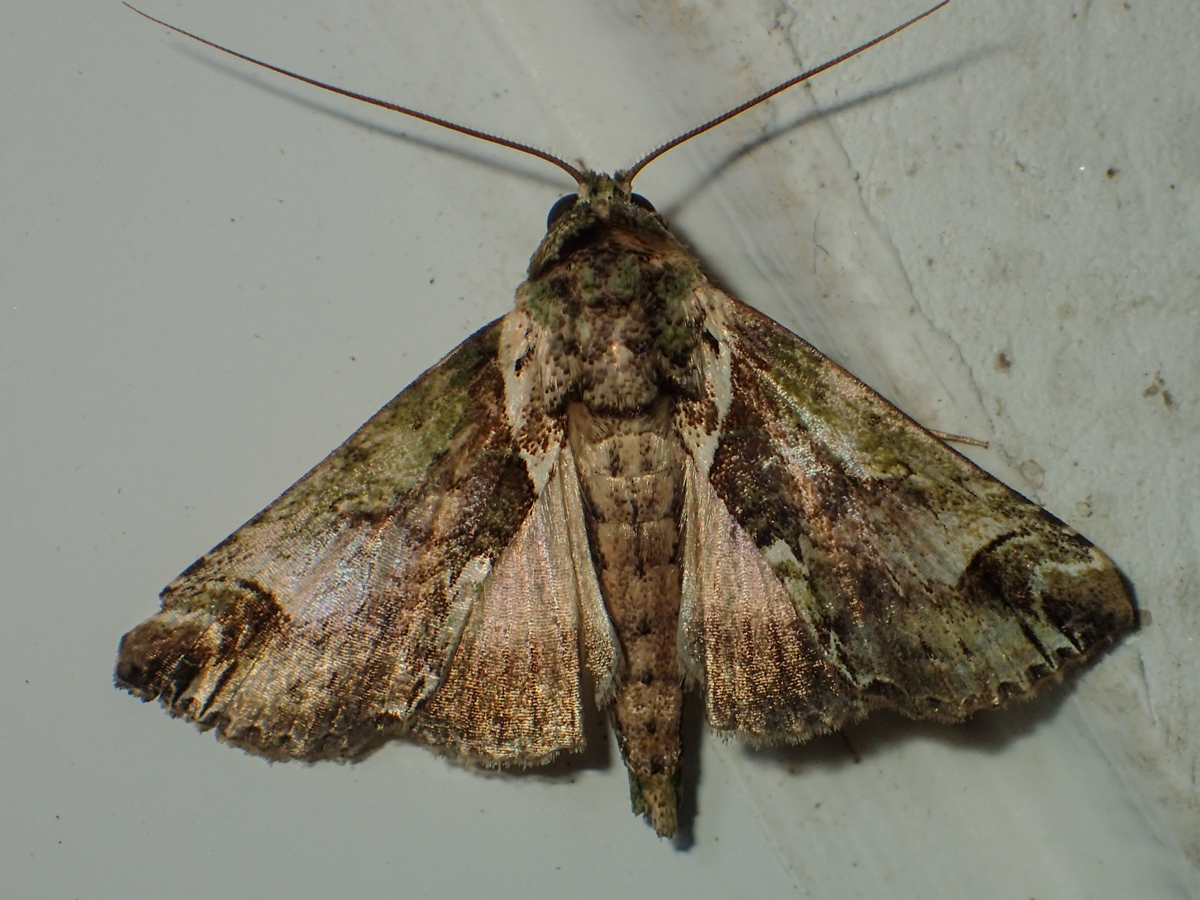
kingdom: Animalia
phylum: Arthropoda
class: Insecta
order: Lepidoptera
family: Nolidae
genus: Risoba
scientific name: Risoba basalis
